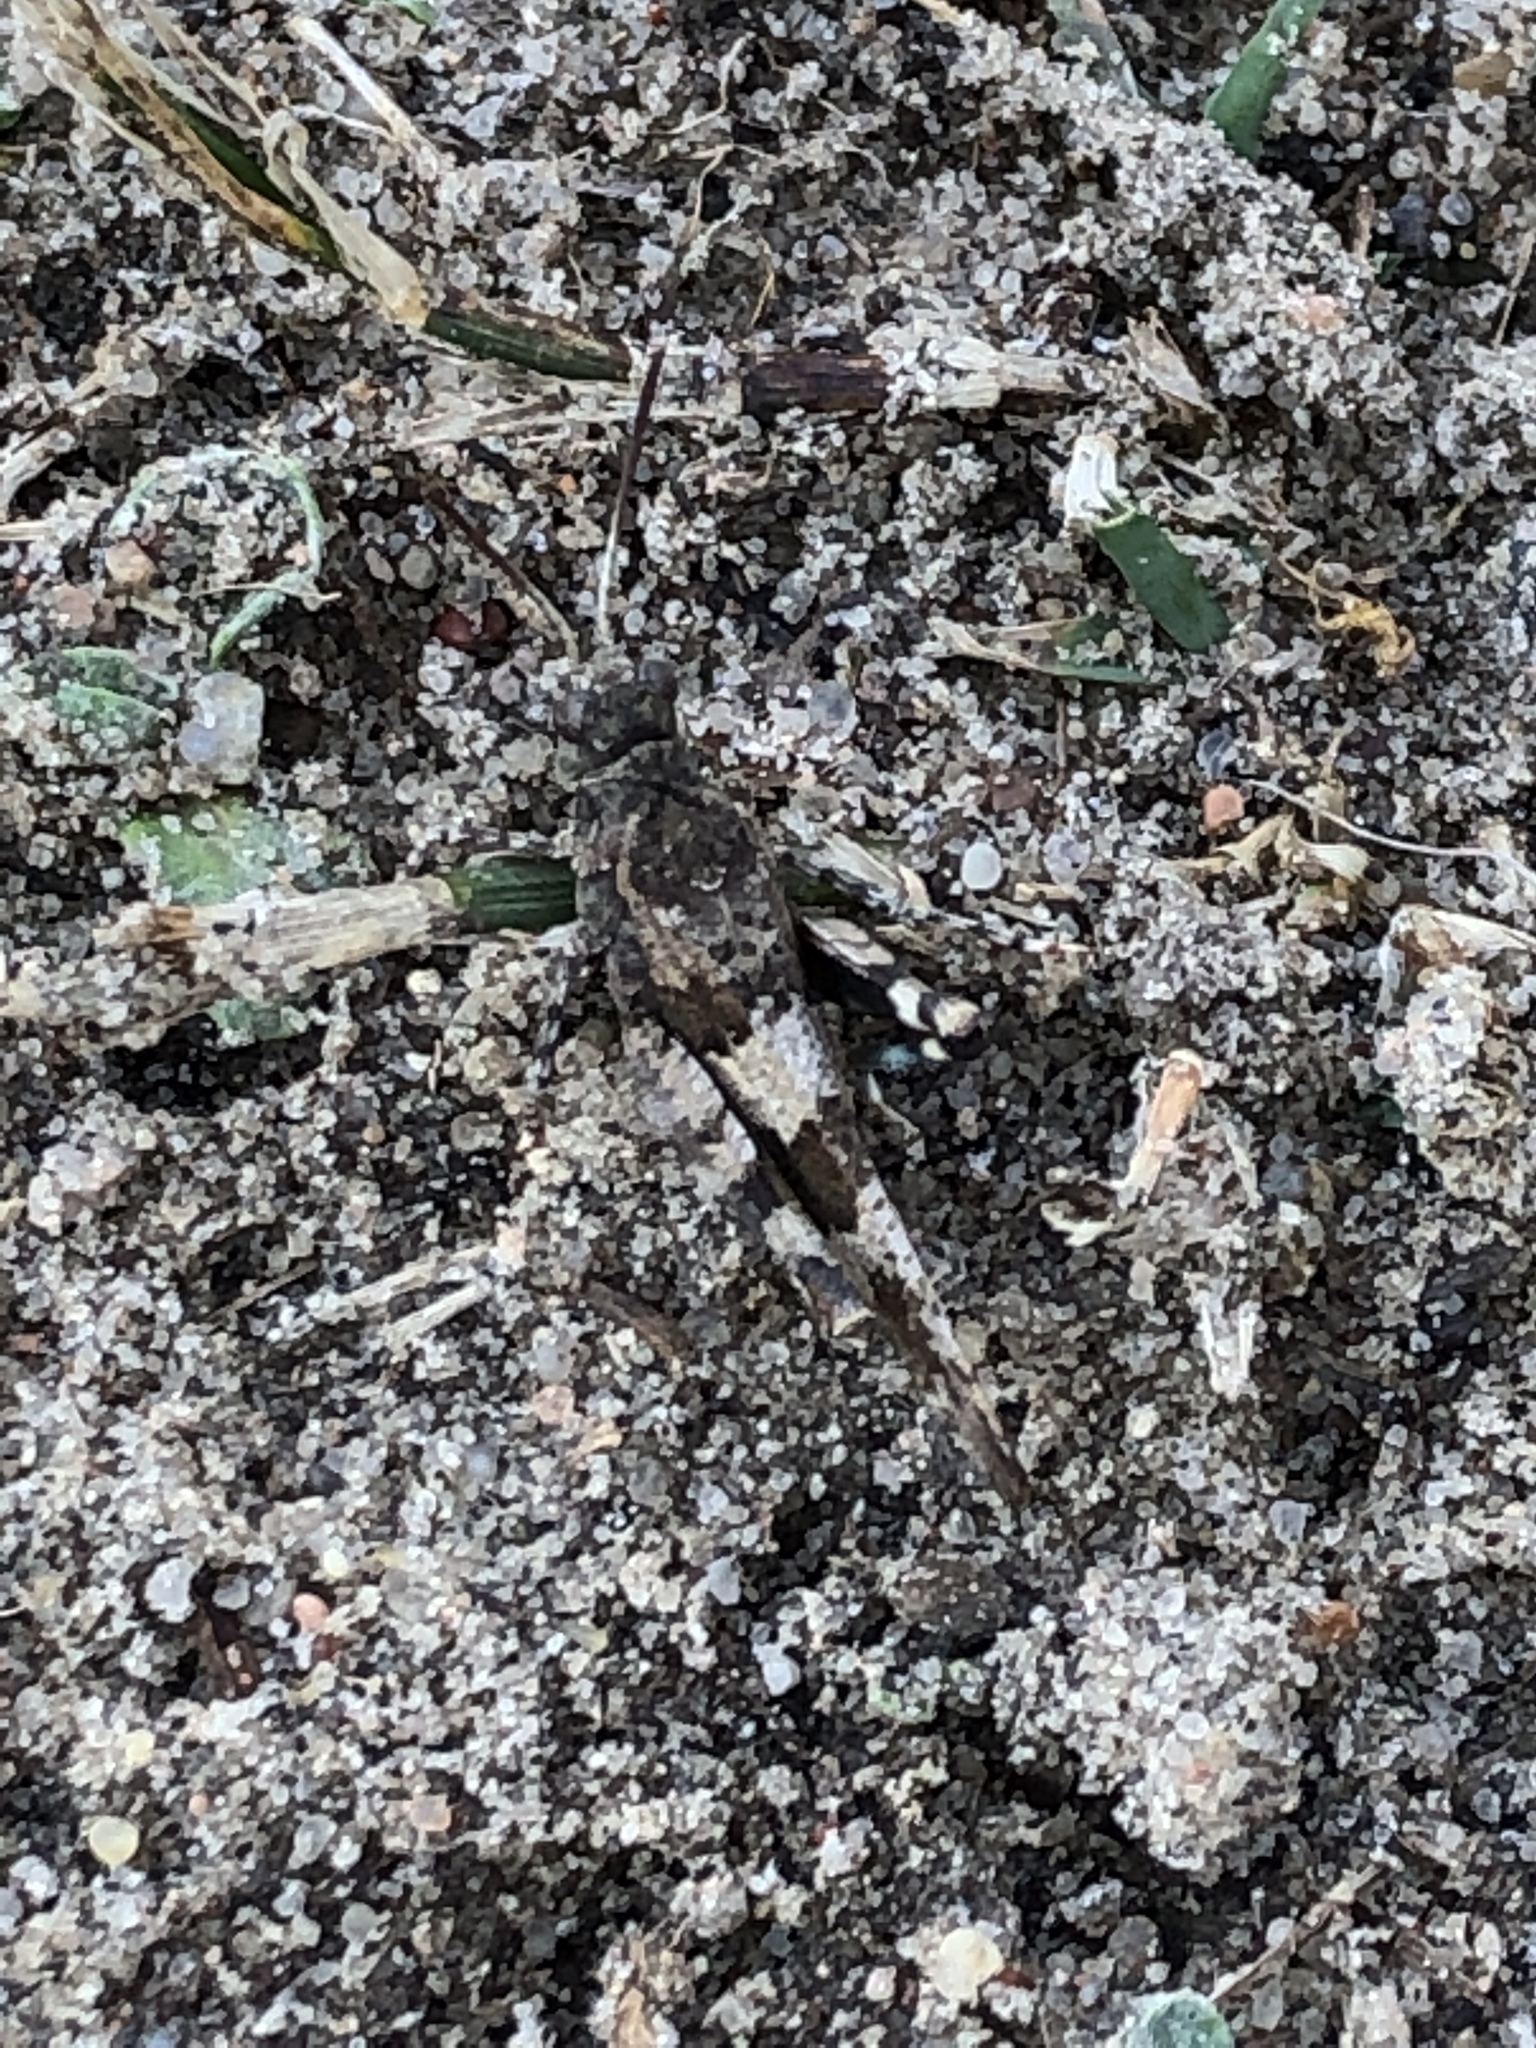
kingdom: Animalia
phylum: Arthropoda
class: Insecta
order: Orthoptera
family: Acrididae
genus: Oedipoda
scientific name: Oedipoda caerulescens
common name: Blue-winged grasshopper
